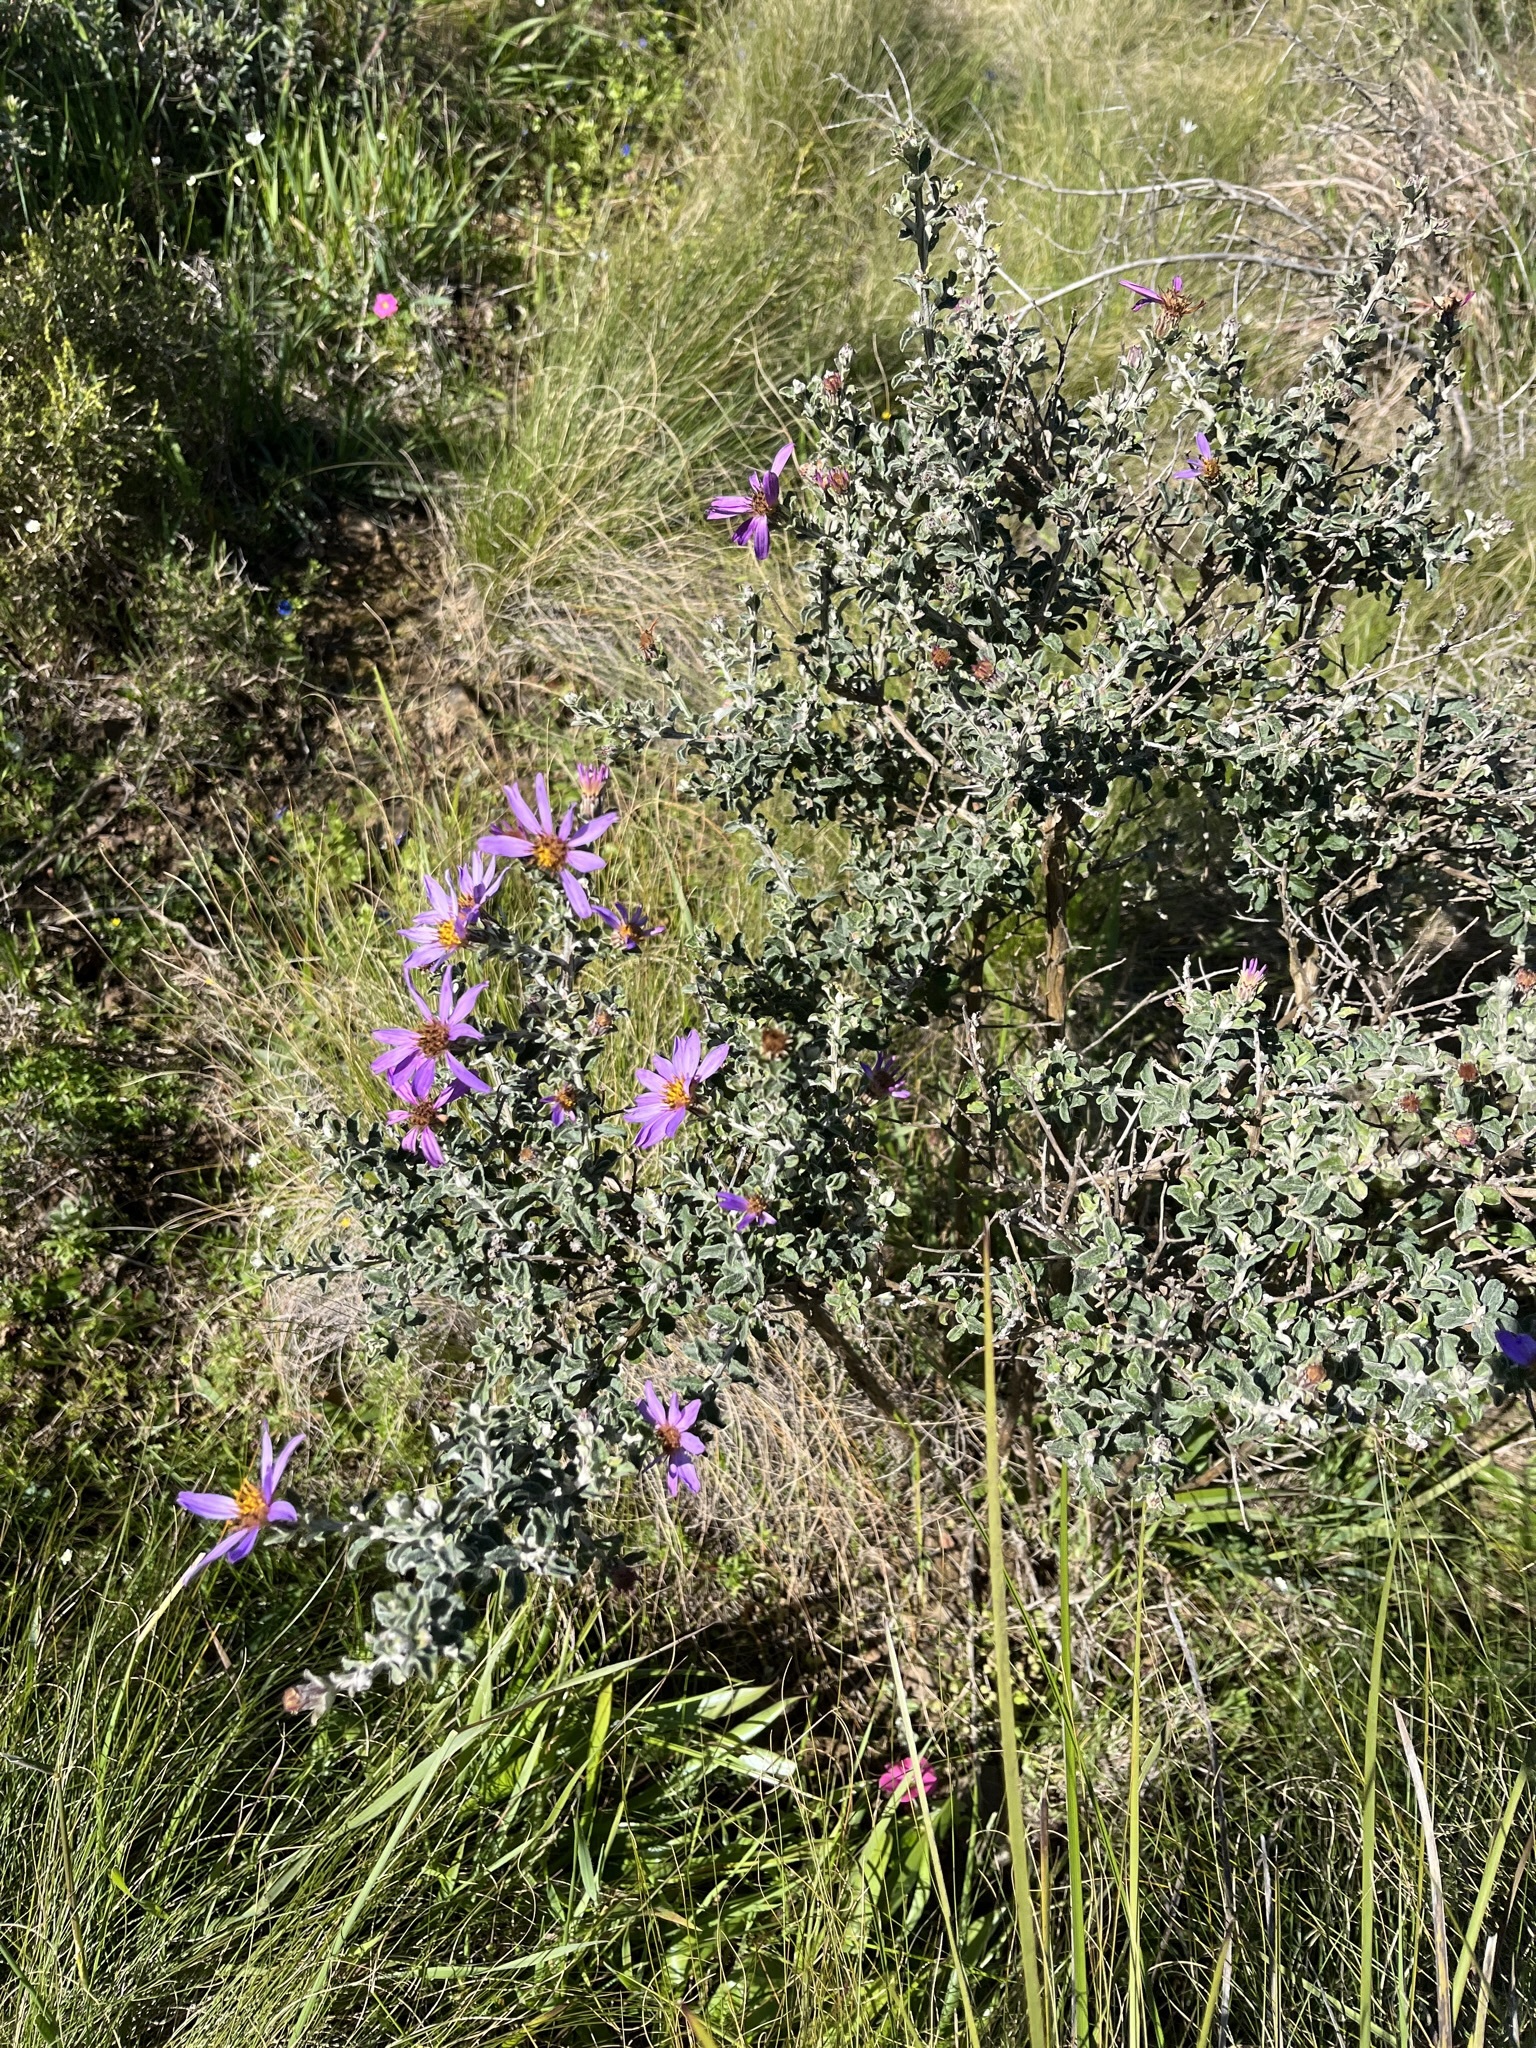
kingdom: Plantae
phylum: Tracheophyta
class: Magnoliopsida
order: Asterales
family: Asteraceae
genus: Printzia
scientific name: Printzia polifolia
